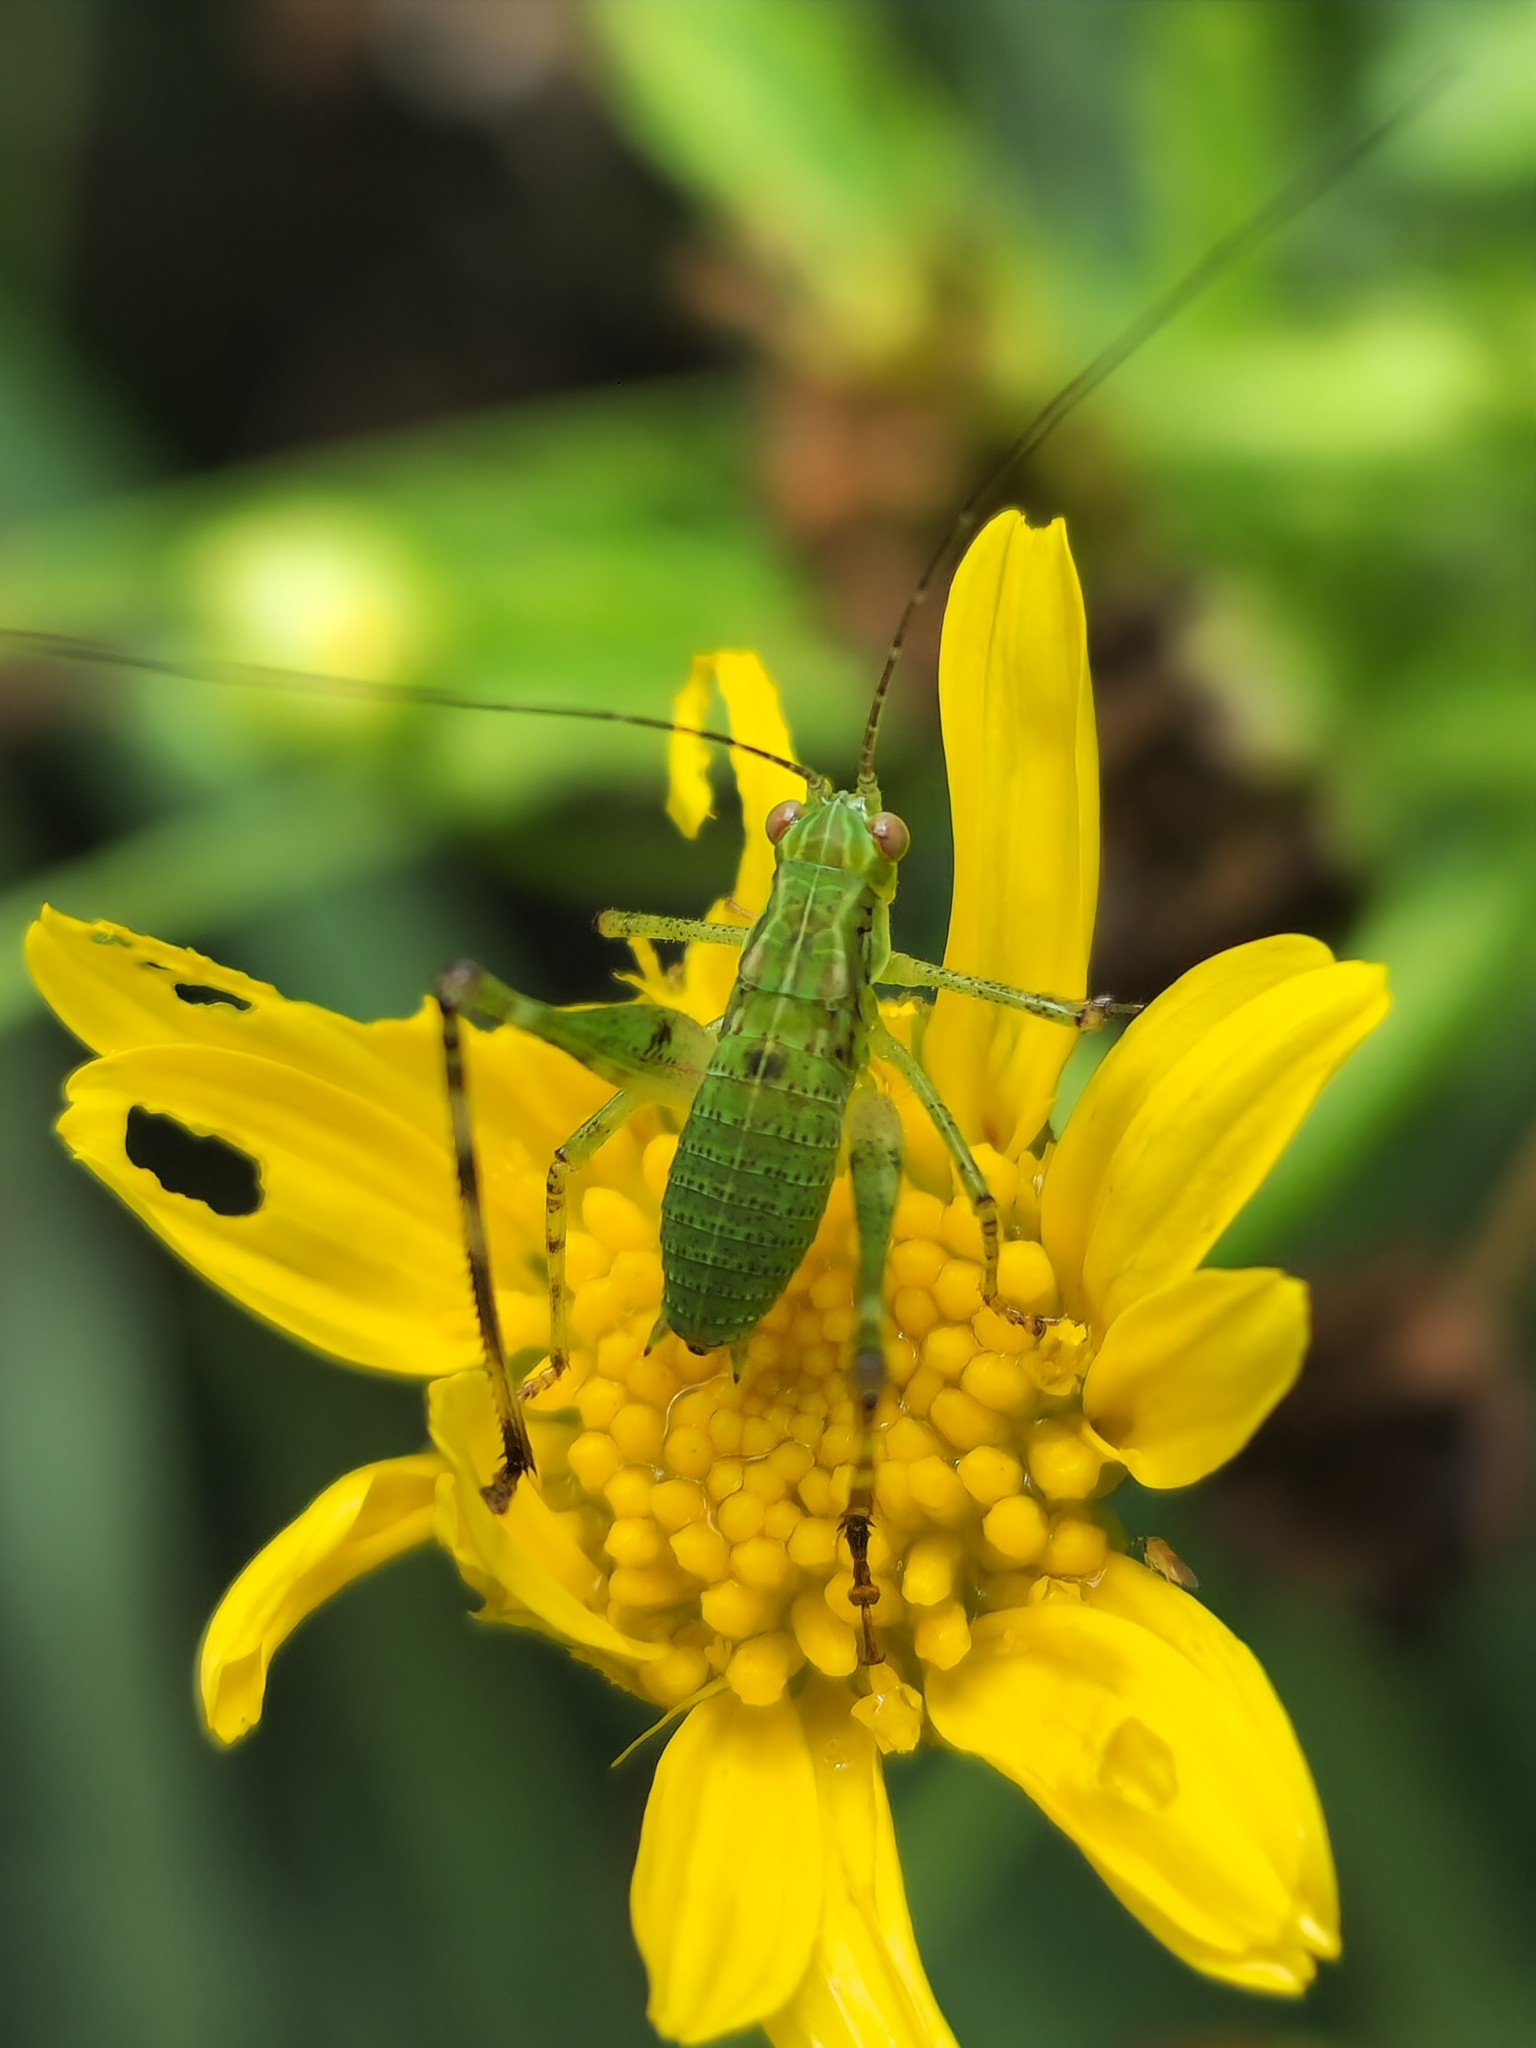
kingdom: Animalia
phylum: Arthropoda
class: Insecta
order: Orthoptera
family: Tettigoniidae
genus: Ligocatinus
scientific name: Ligocatinus spinatus
